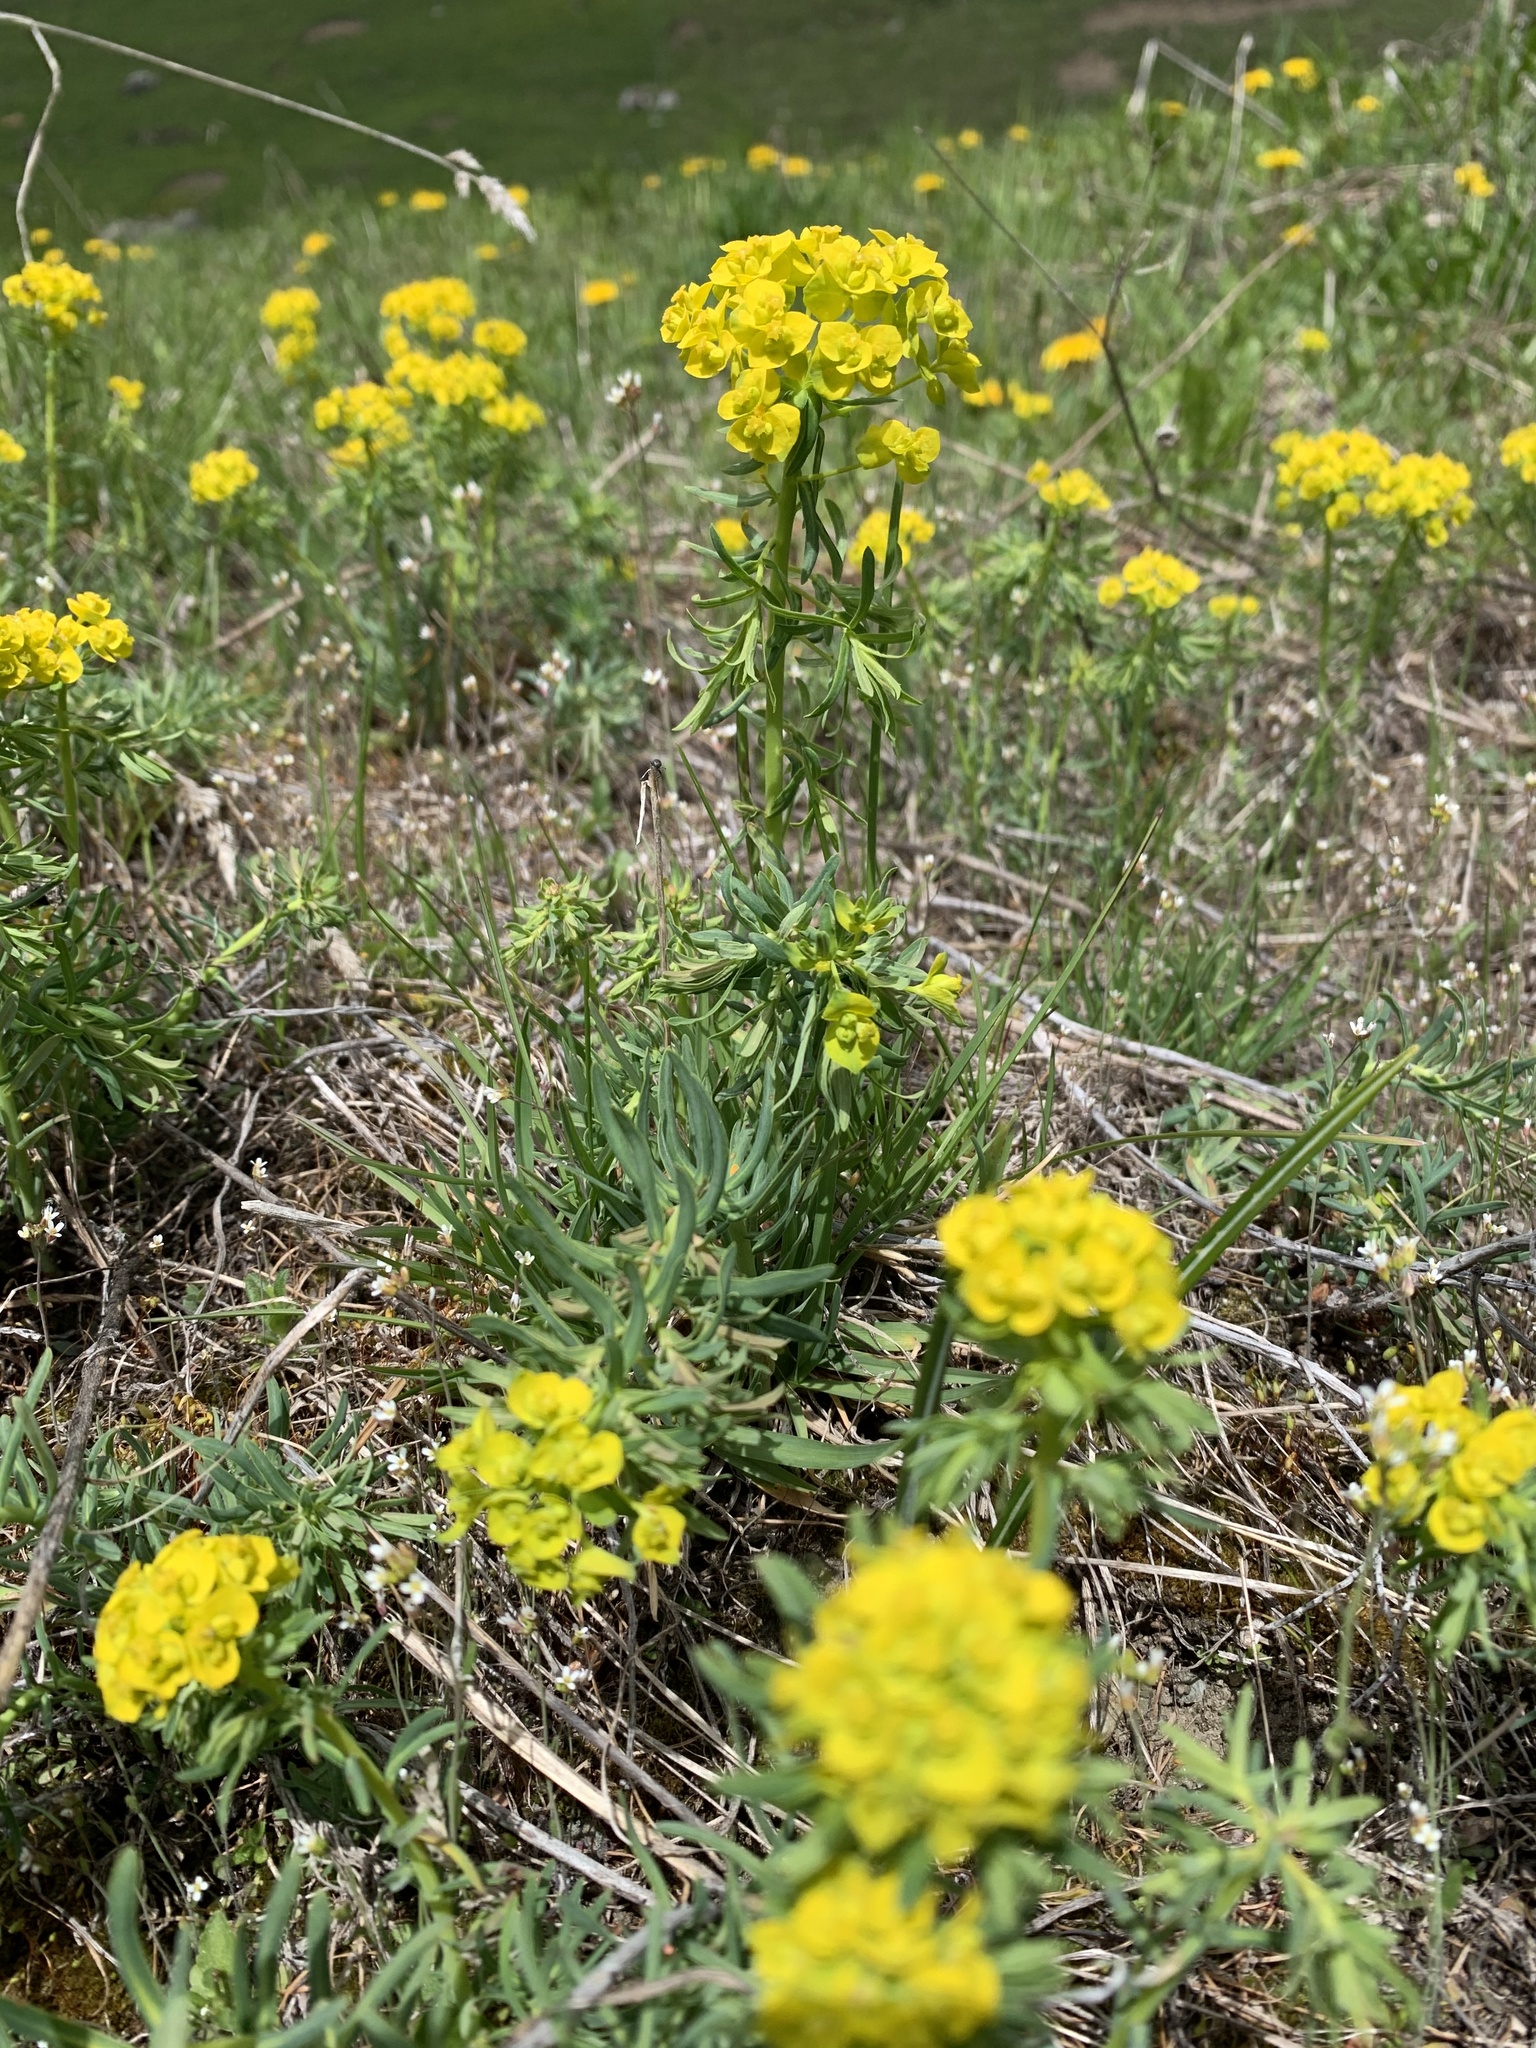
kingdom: Plantae
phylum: Tracheophyta
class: Magnoliopsida
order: Malpighiales
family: Euphorbiaceae
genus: Euphorbia
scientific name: Euphorbia cyparissias
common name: Cypress spurge
